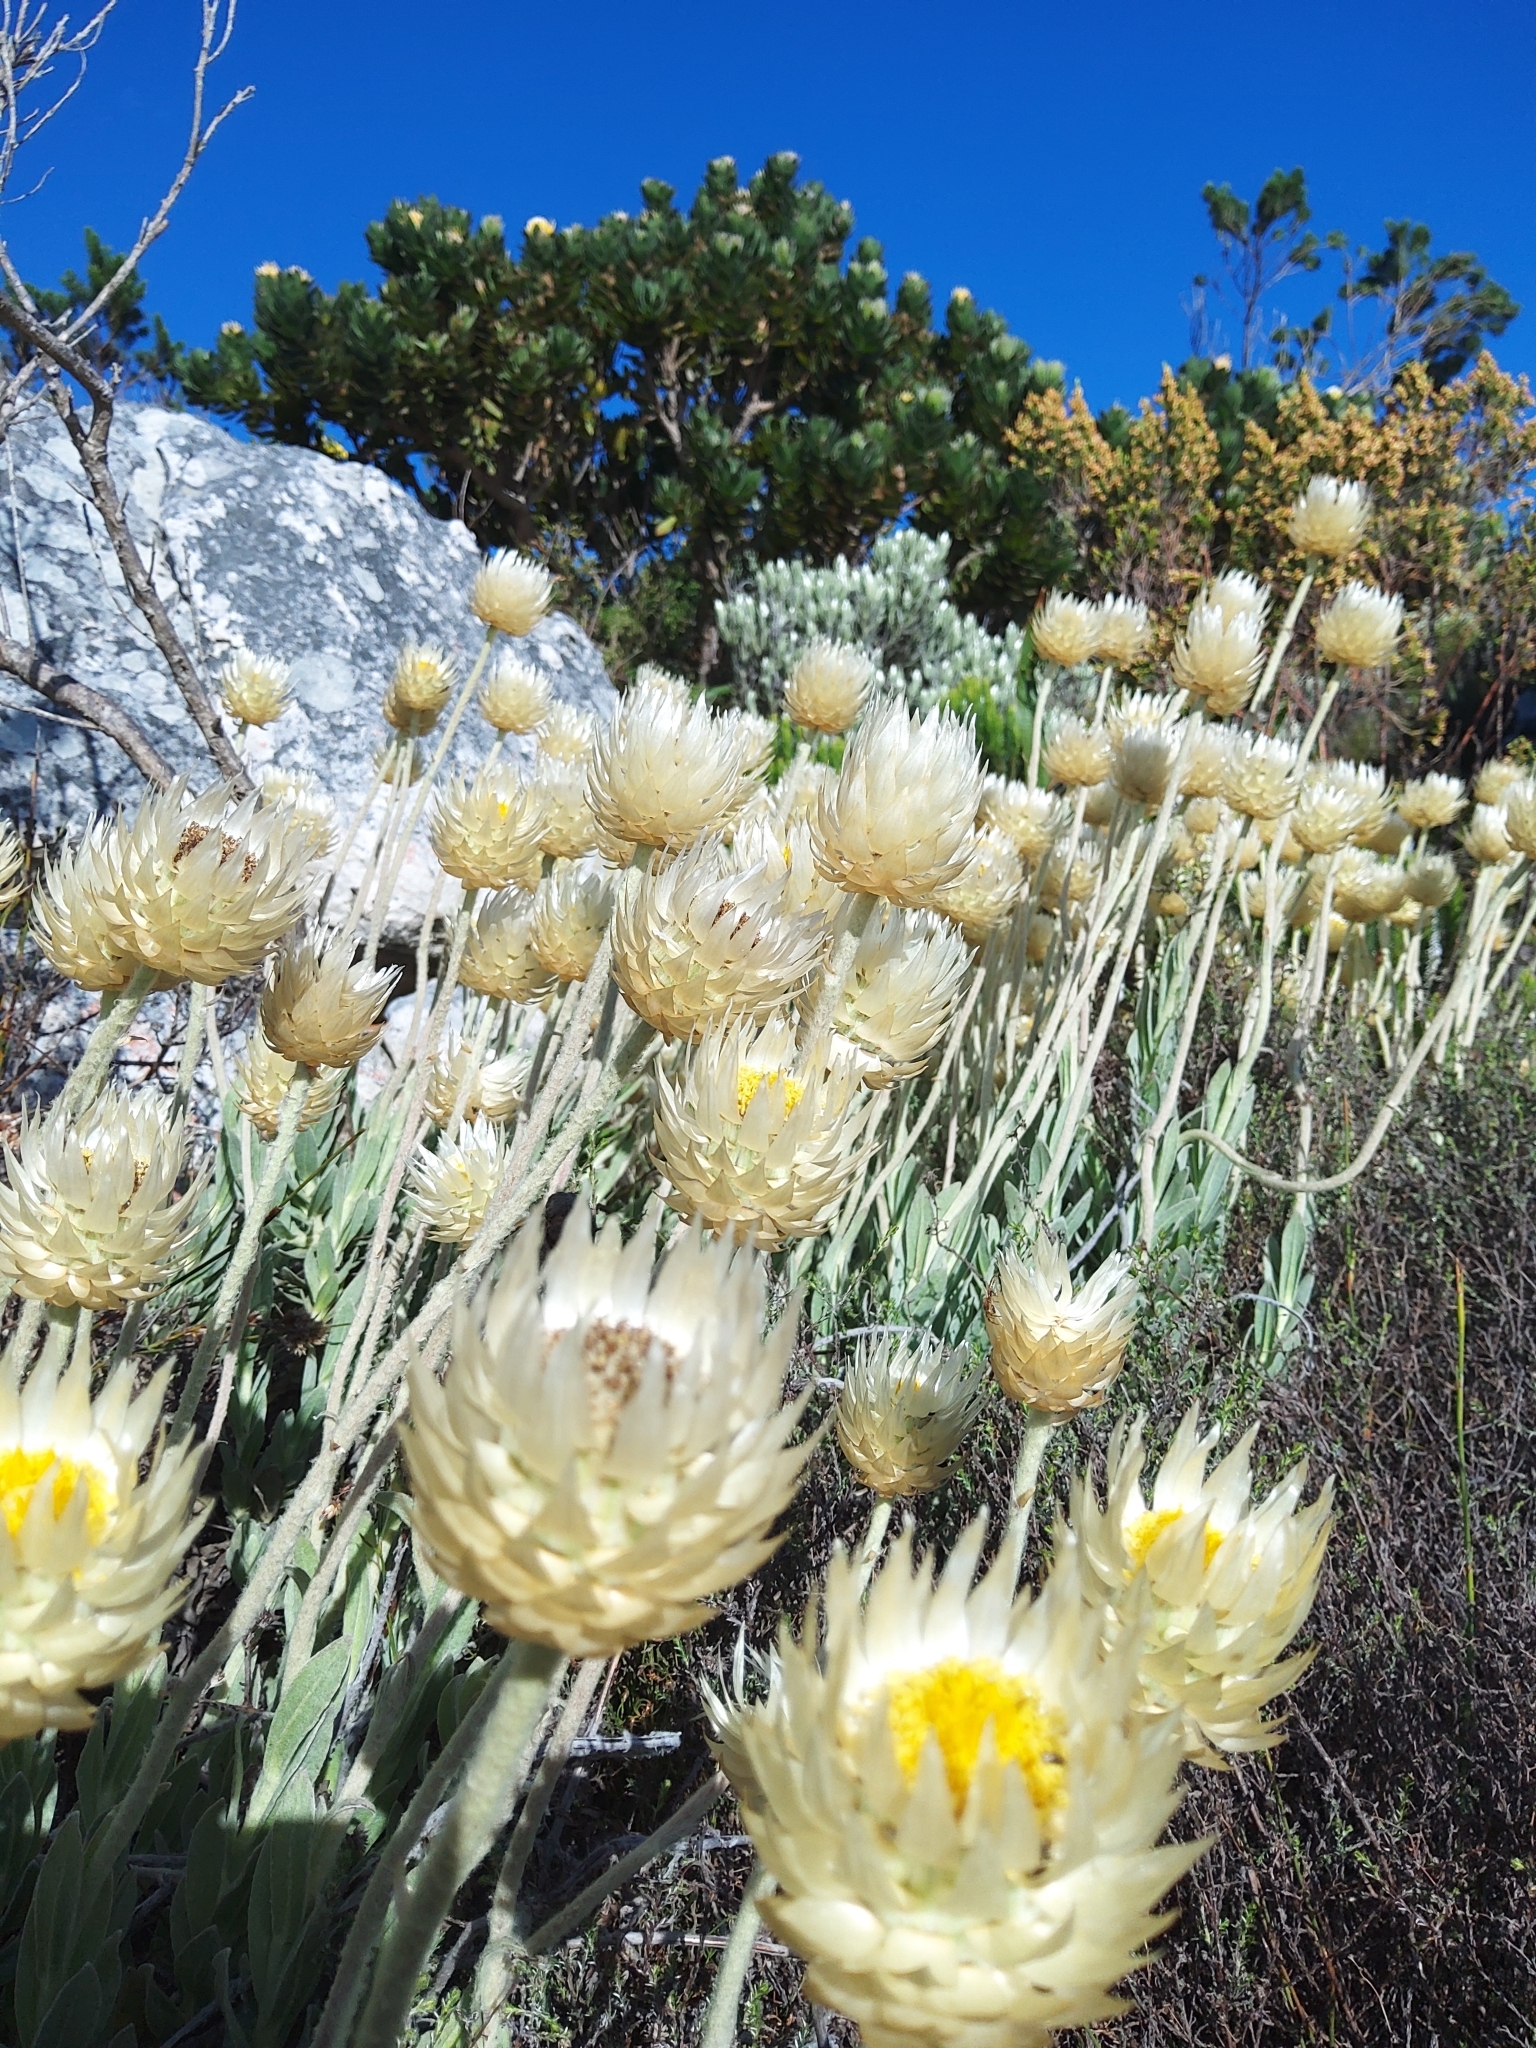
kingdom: Plantae
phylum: Tracheophyta
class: Magnoliopsida
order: Asterales
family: Asteraceae
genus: Syncarpha
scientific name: Syncarpha speciosissima
